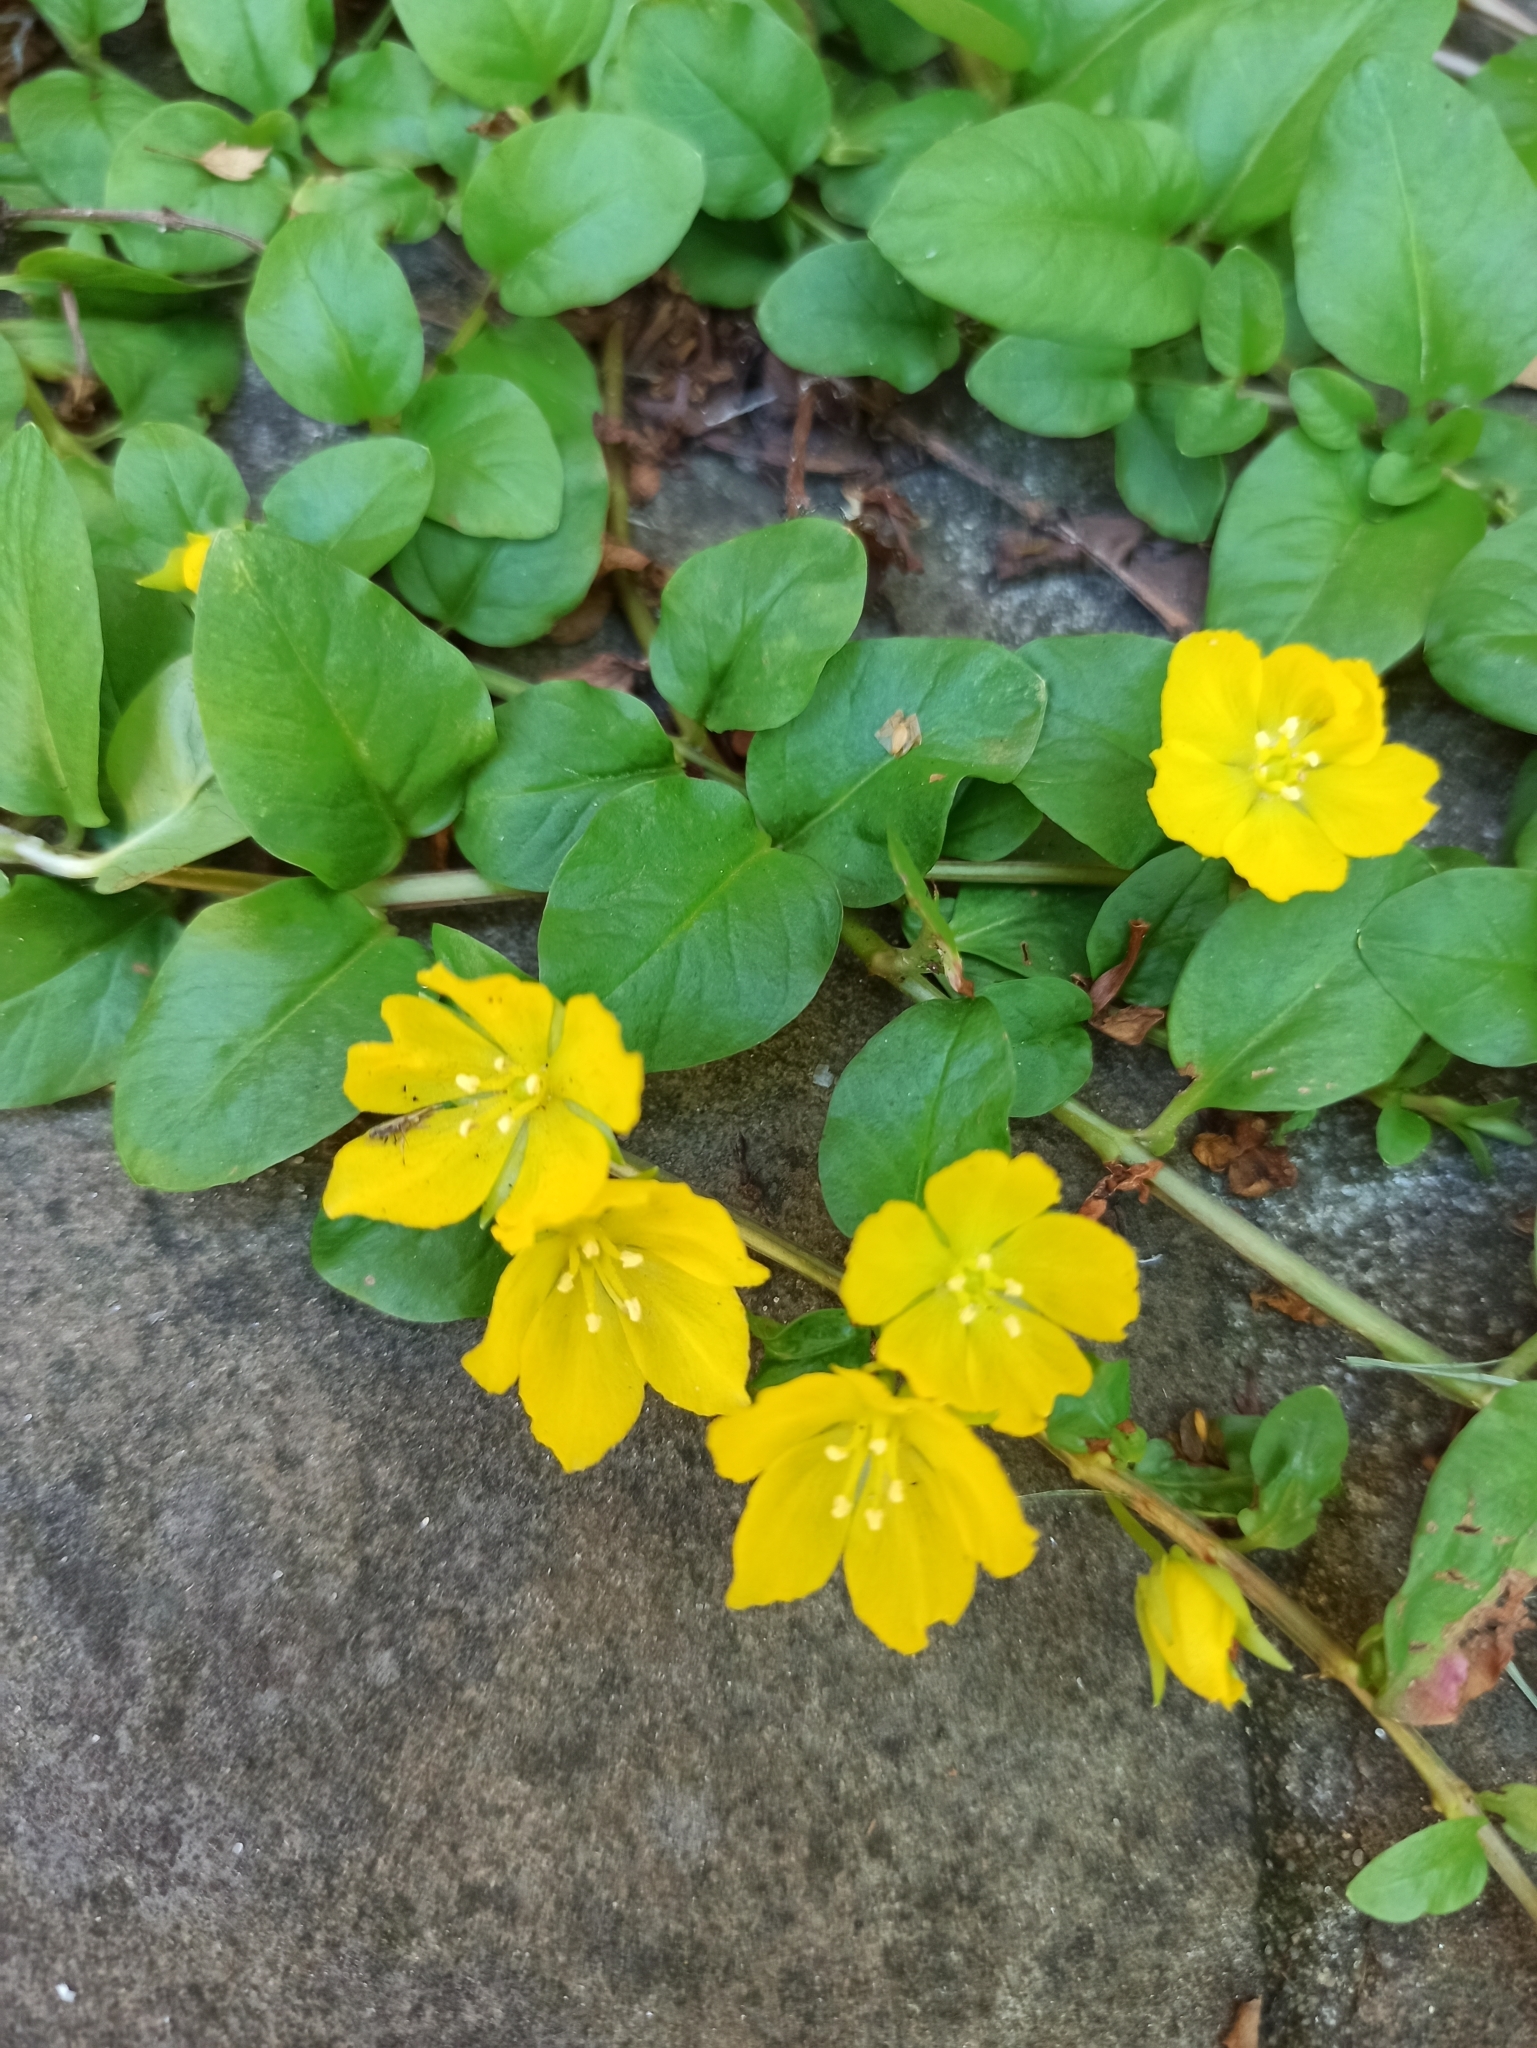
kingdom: Plantae
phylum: Tracheophyta
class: Magnoliopsida
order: Ericales
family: Primulaceae
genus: Lysimachia
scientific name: Lysimachia nummularia
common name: Moneywort
